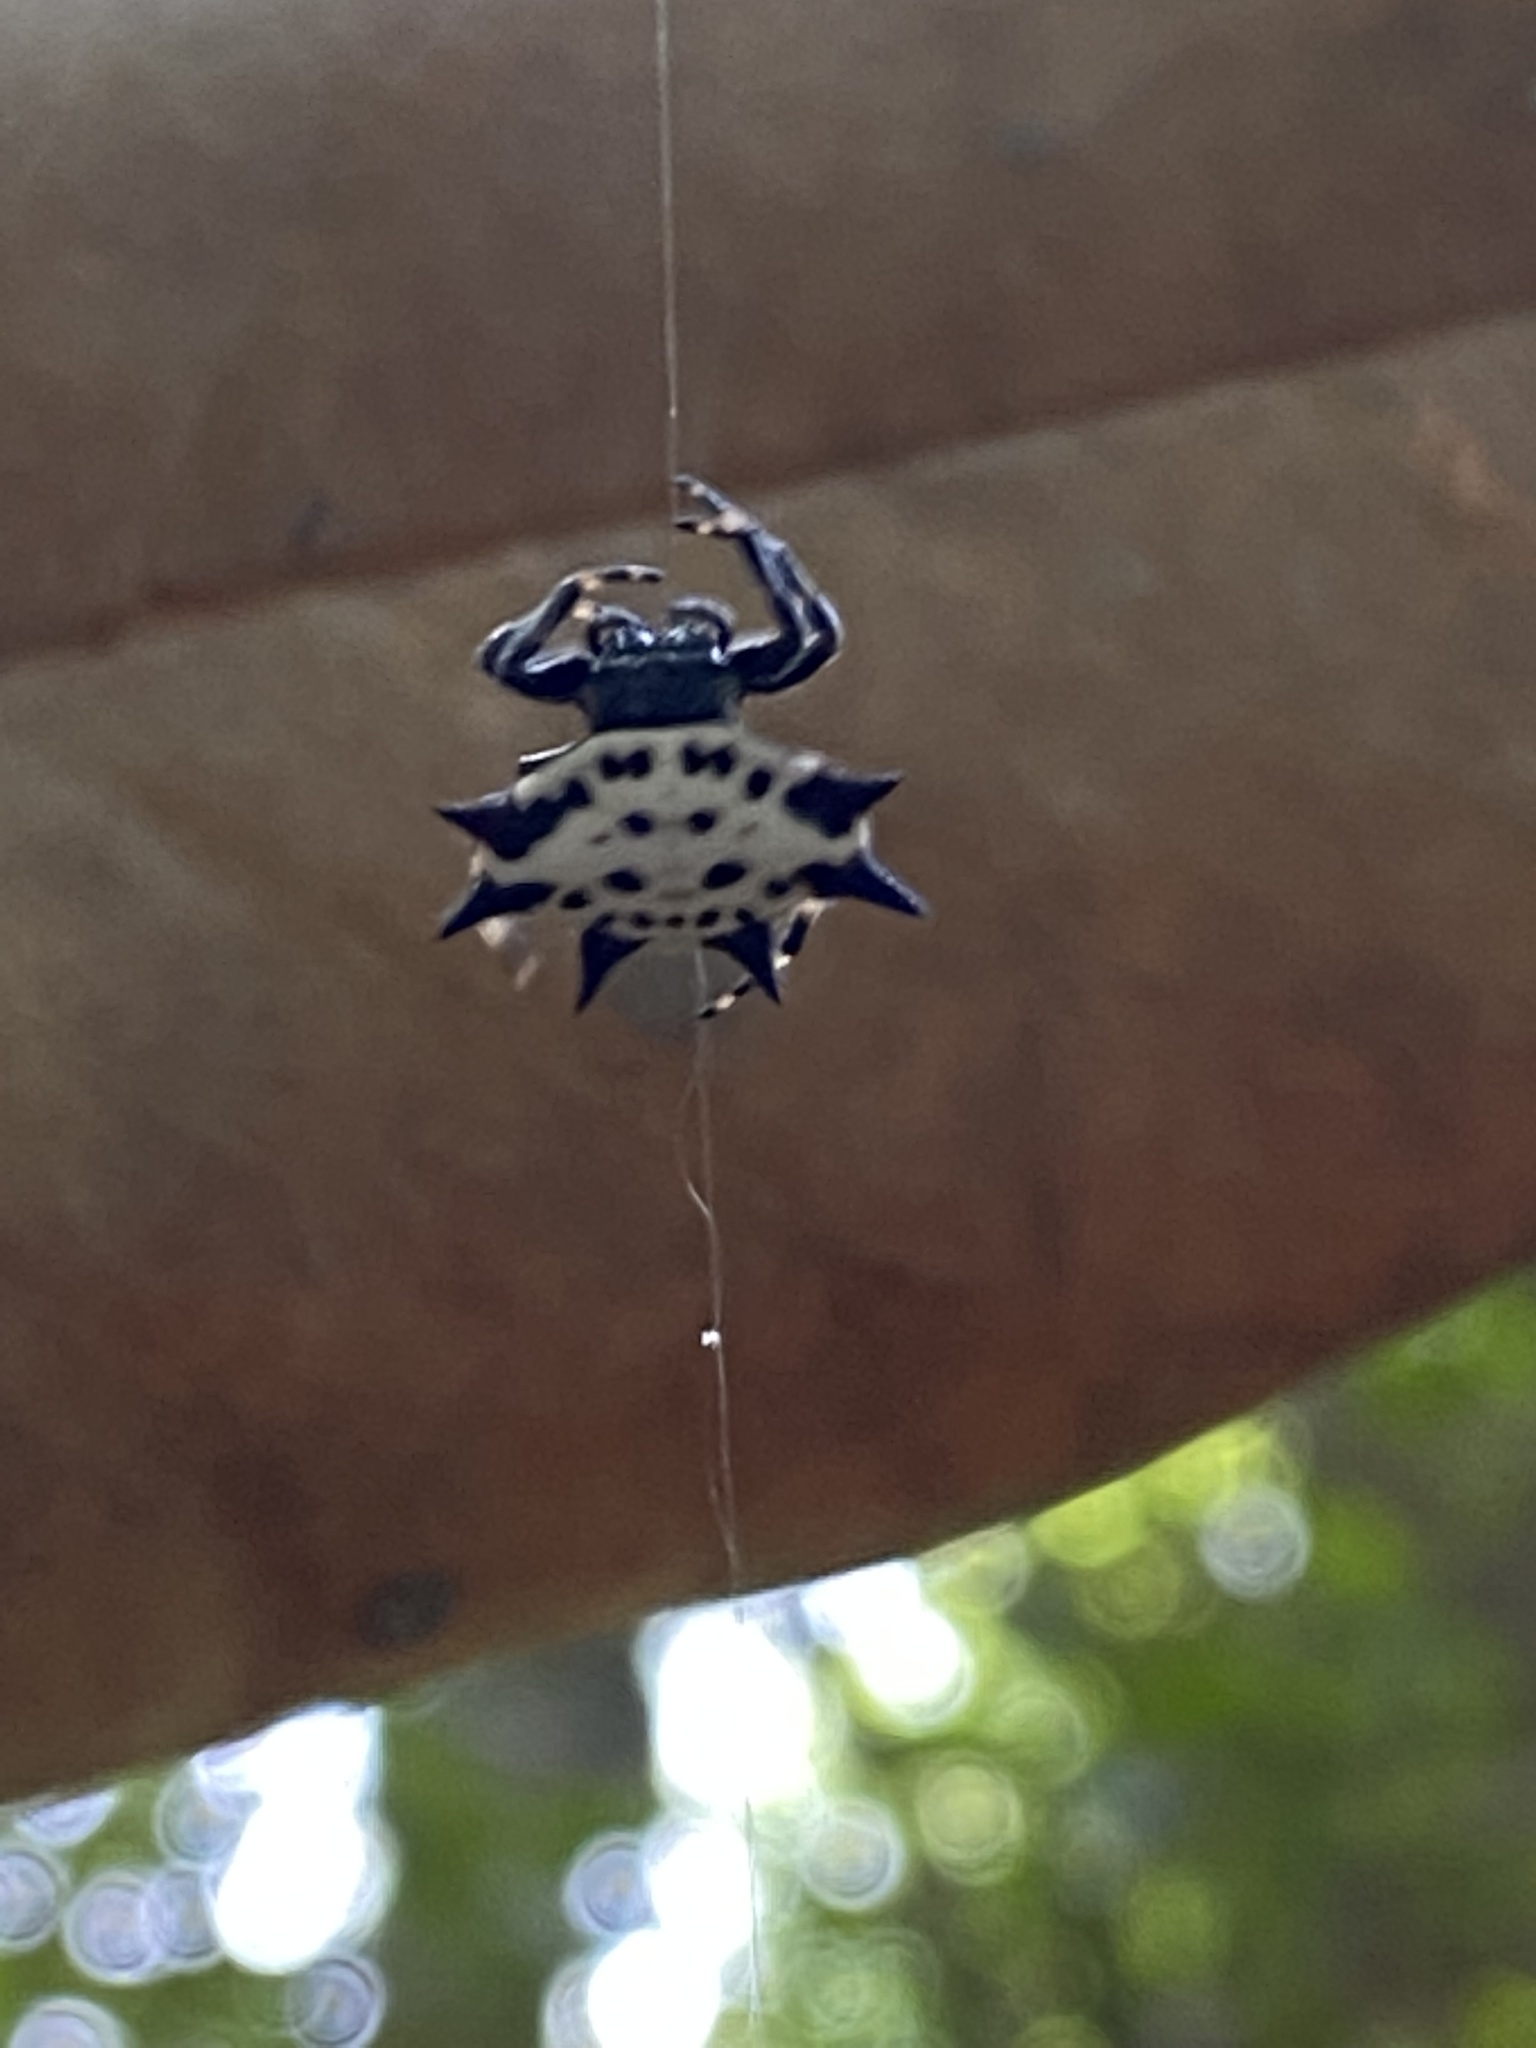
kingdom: Animalia
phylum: Arthropoda
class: Arachnida
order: Araneae
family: Araneidae
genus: Gasteracantha
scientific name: Gasteracantha cancriformis
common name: Orb weavers
